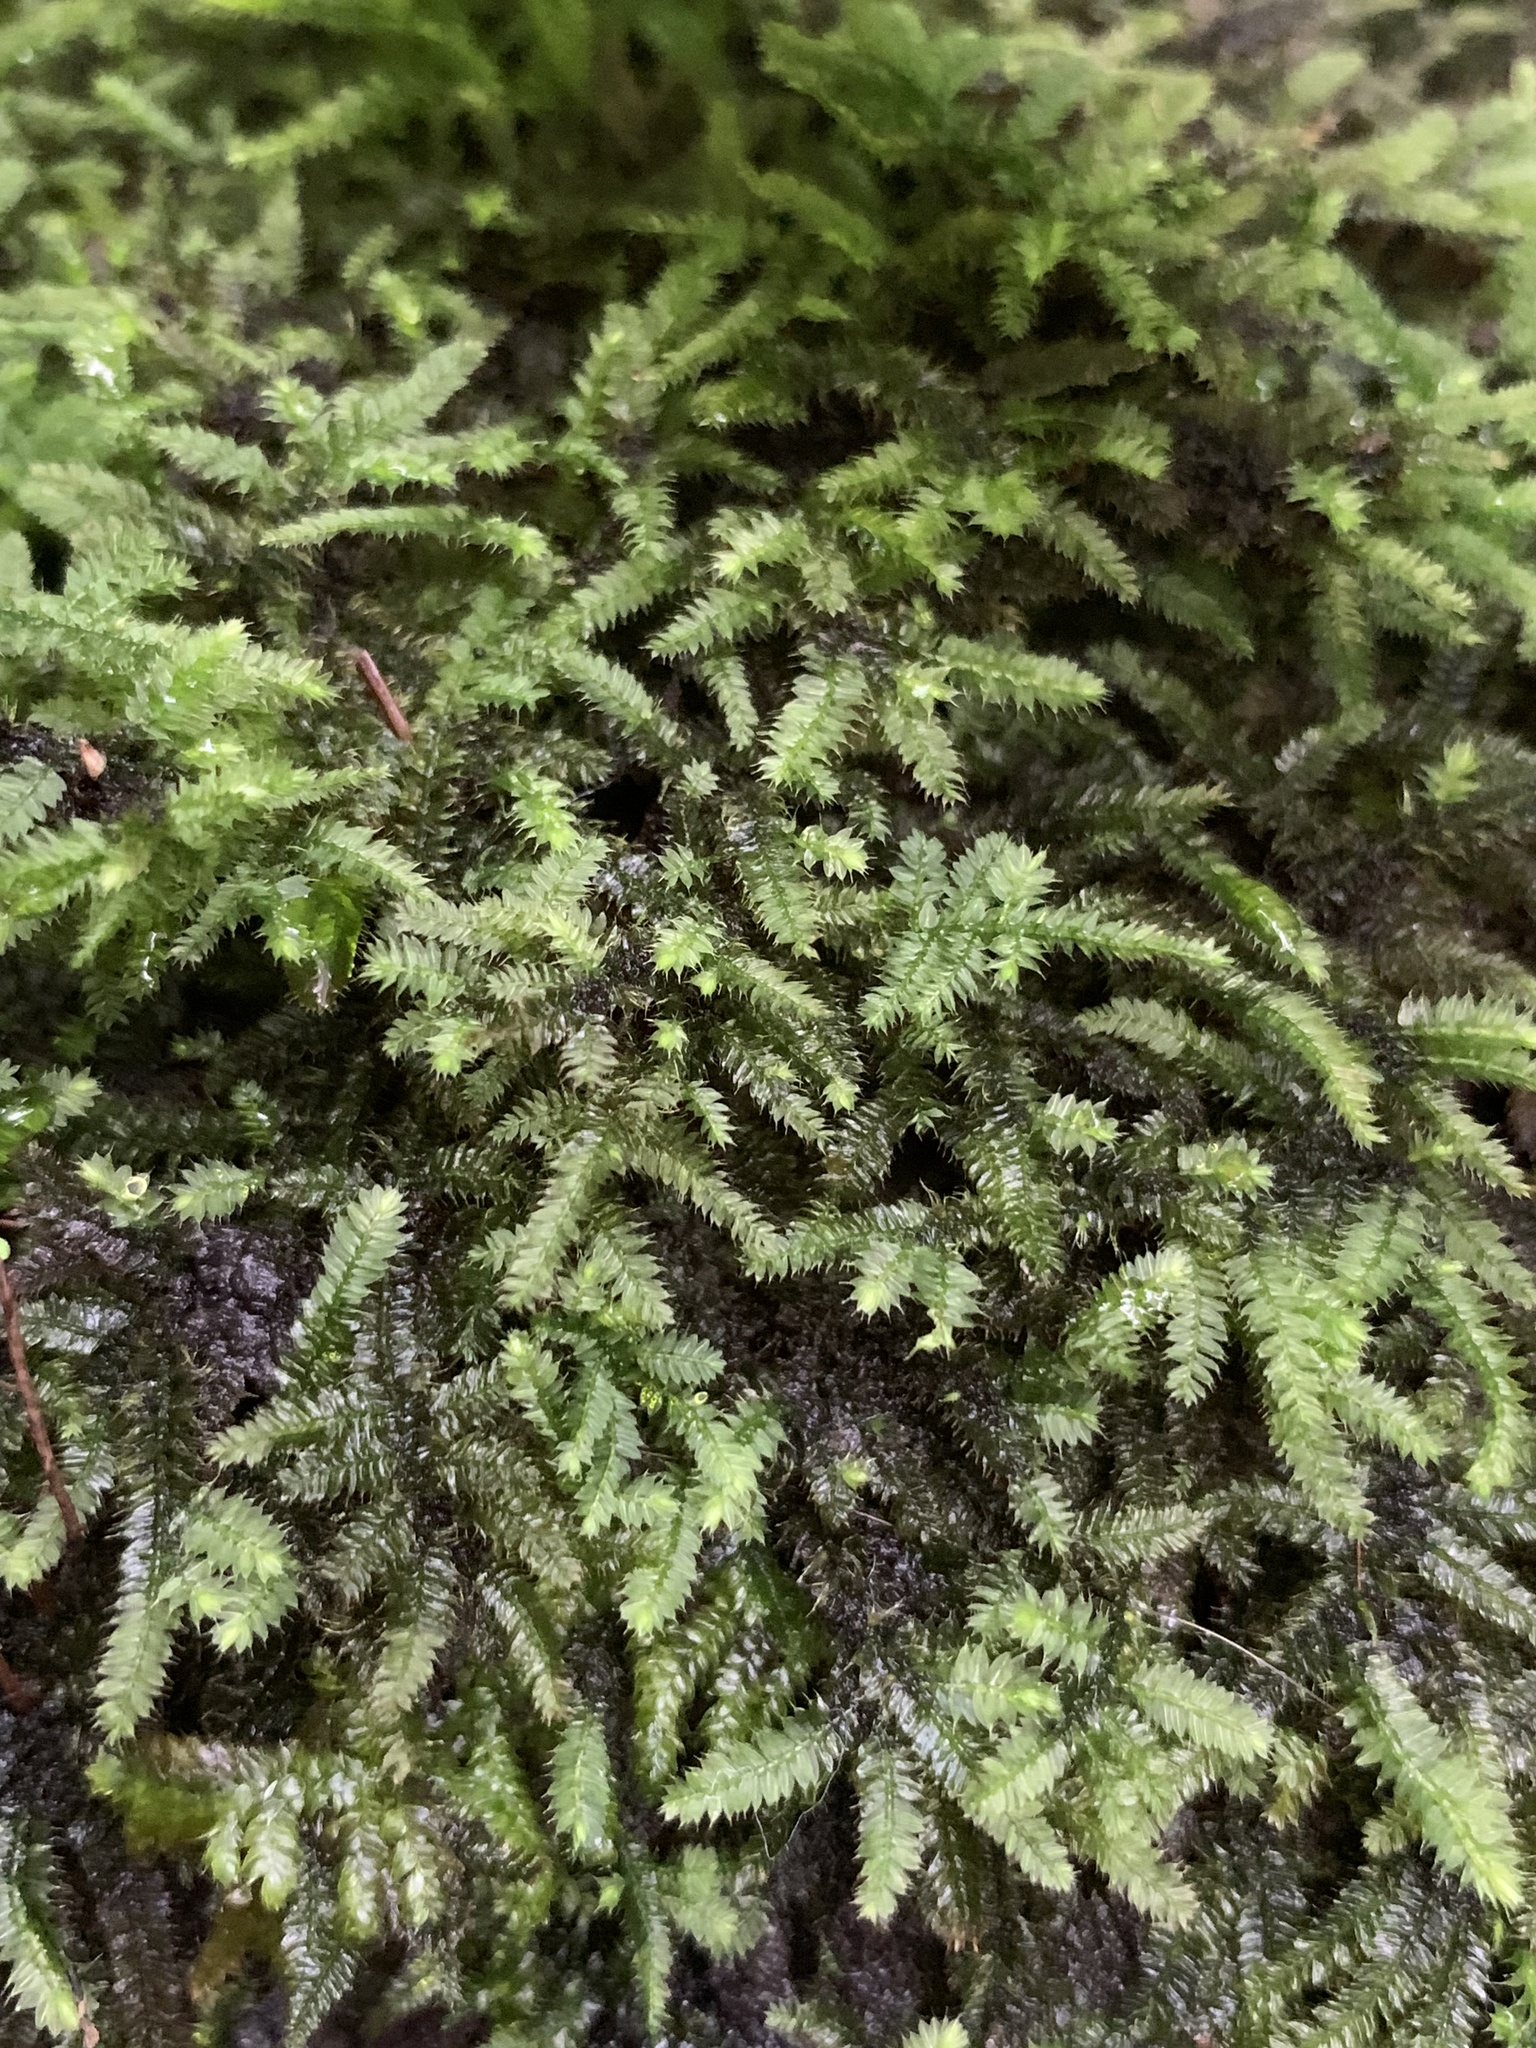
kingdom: Plantae
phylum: Bryophyta
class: Bryopsida
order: Hypnodendrales
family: Racopilaceae
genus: Racopilum
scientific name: Racopilum cuspidigerum
